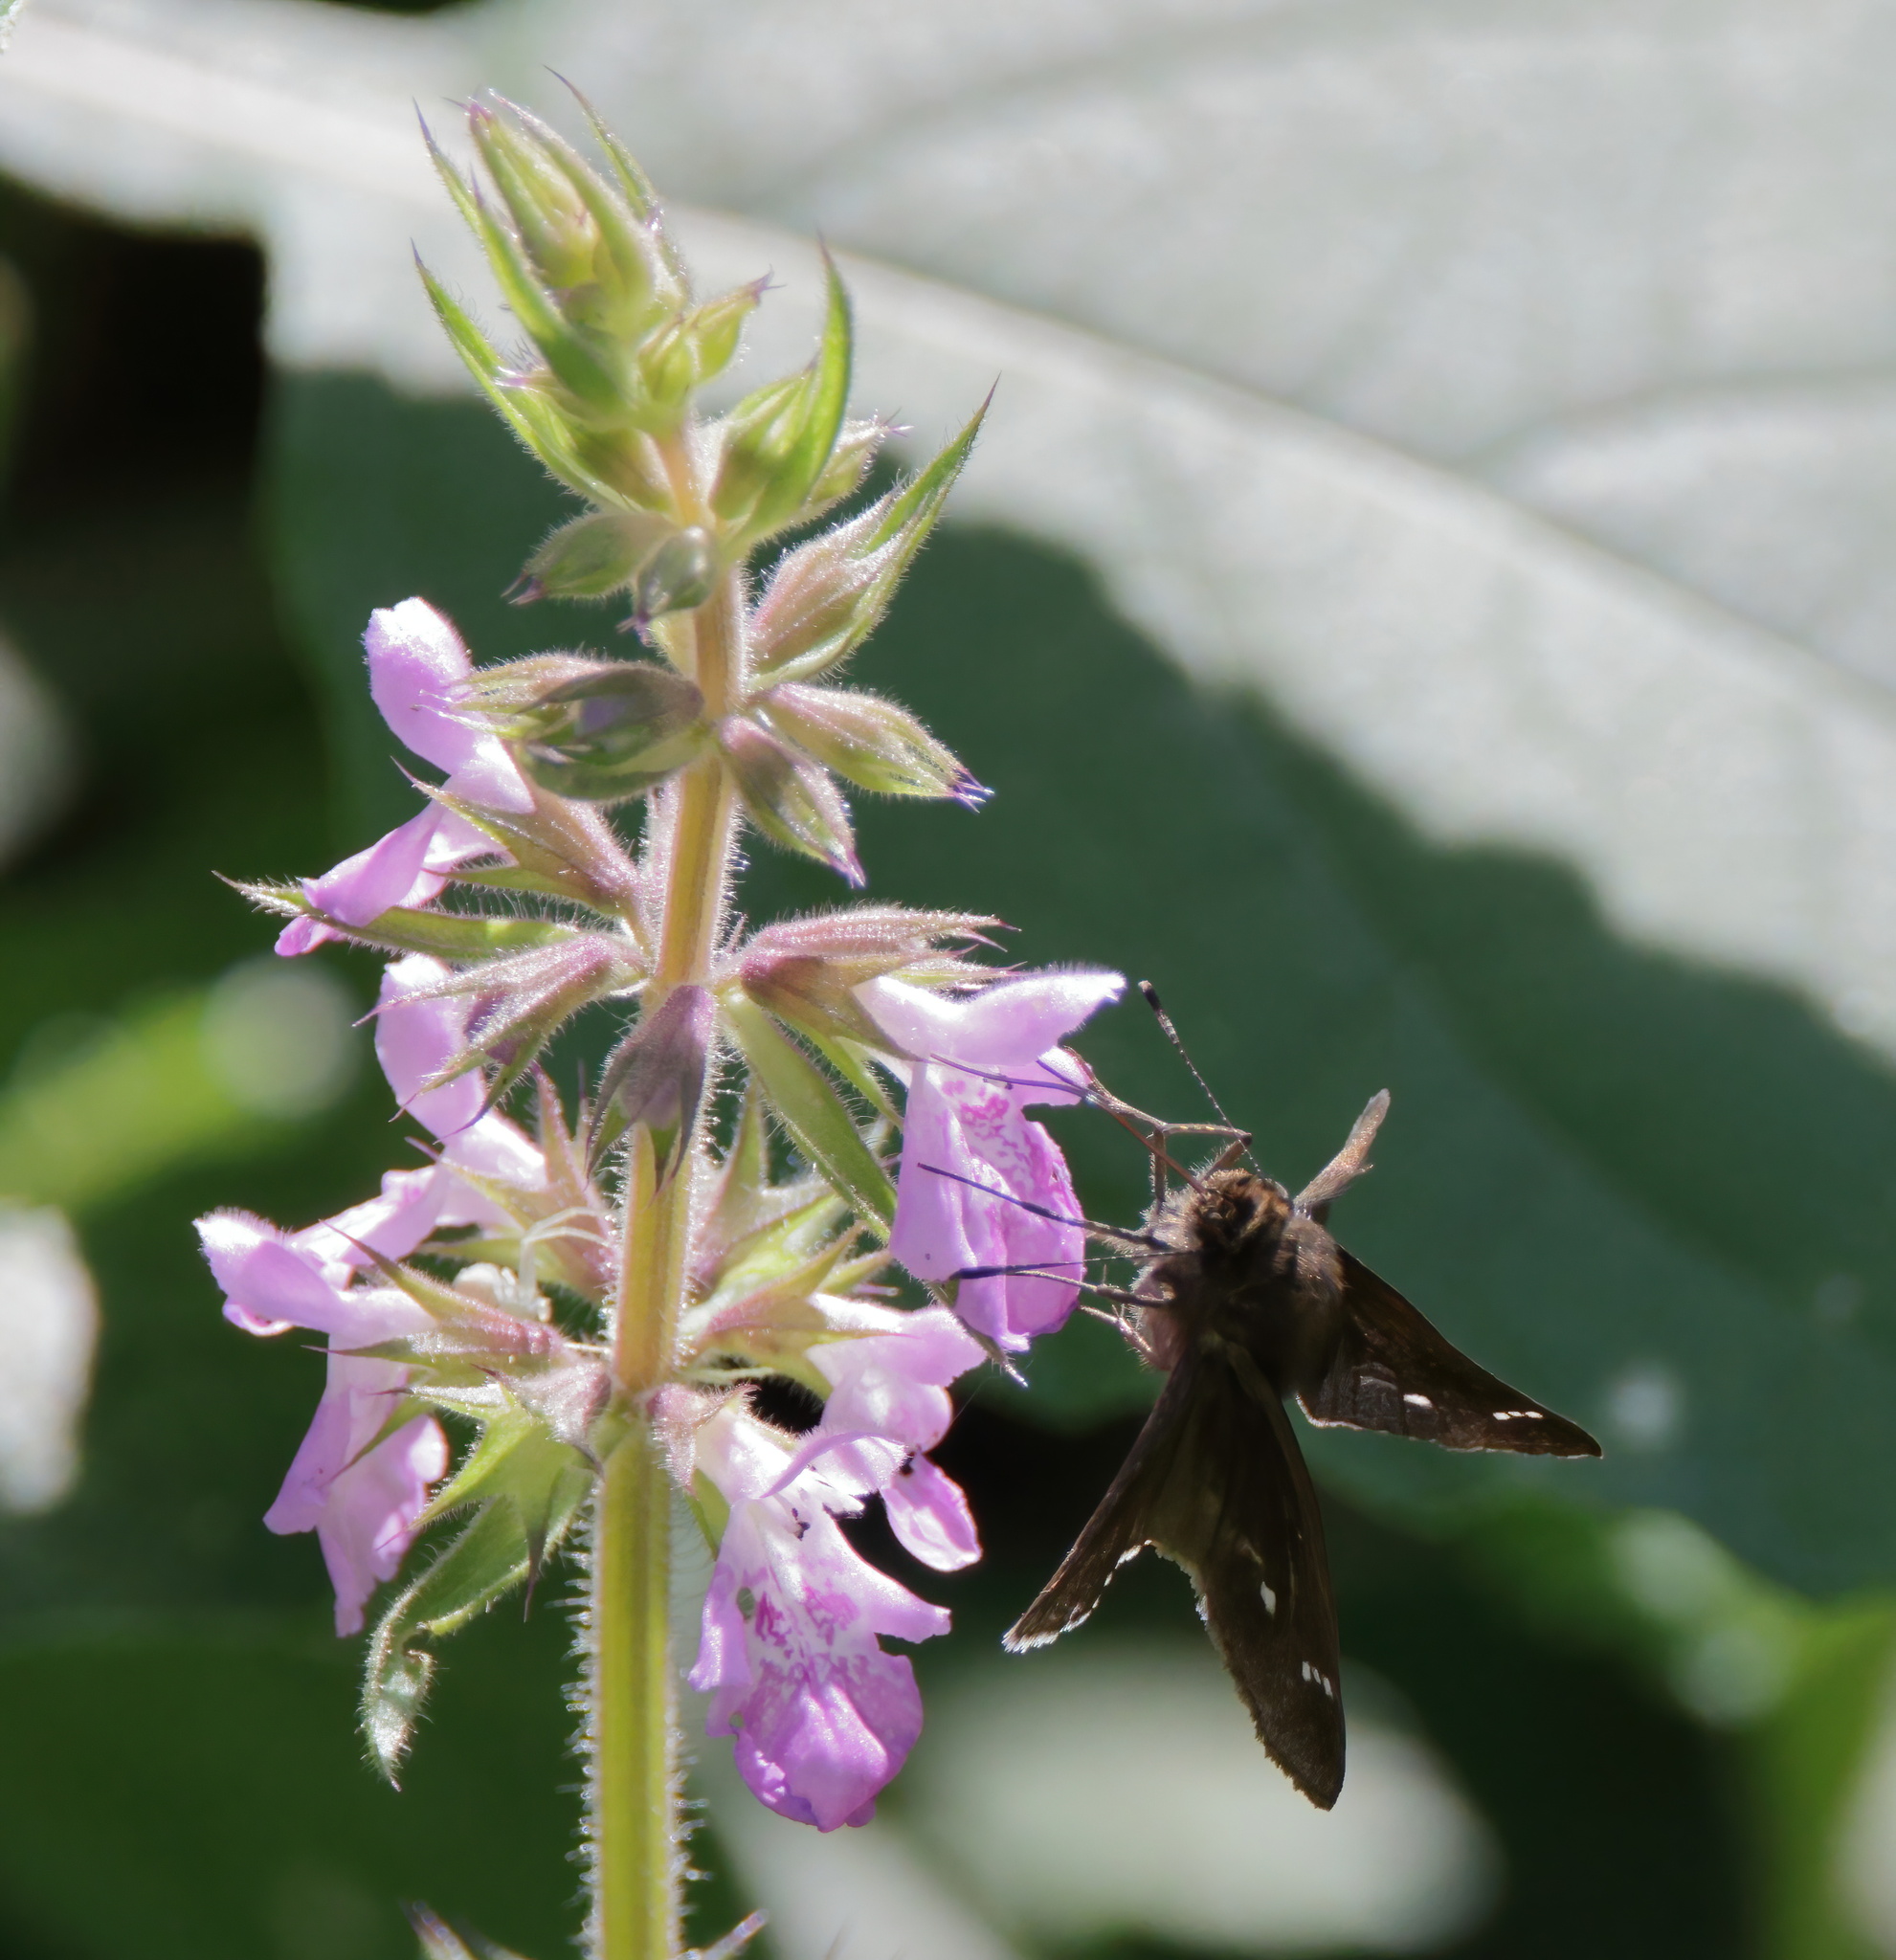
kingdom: Animalia
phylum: Arthropoda
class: Insecta
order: Lepidoptera
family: Hesperiidae
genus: Lerema
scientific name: Lerema accius
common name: Clouded skipper
